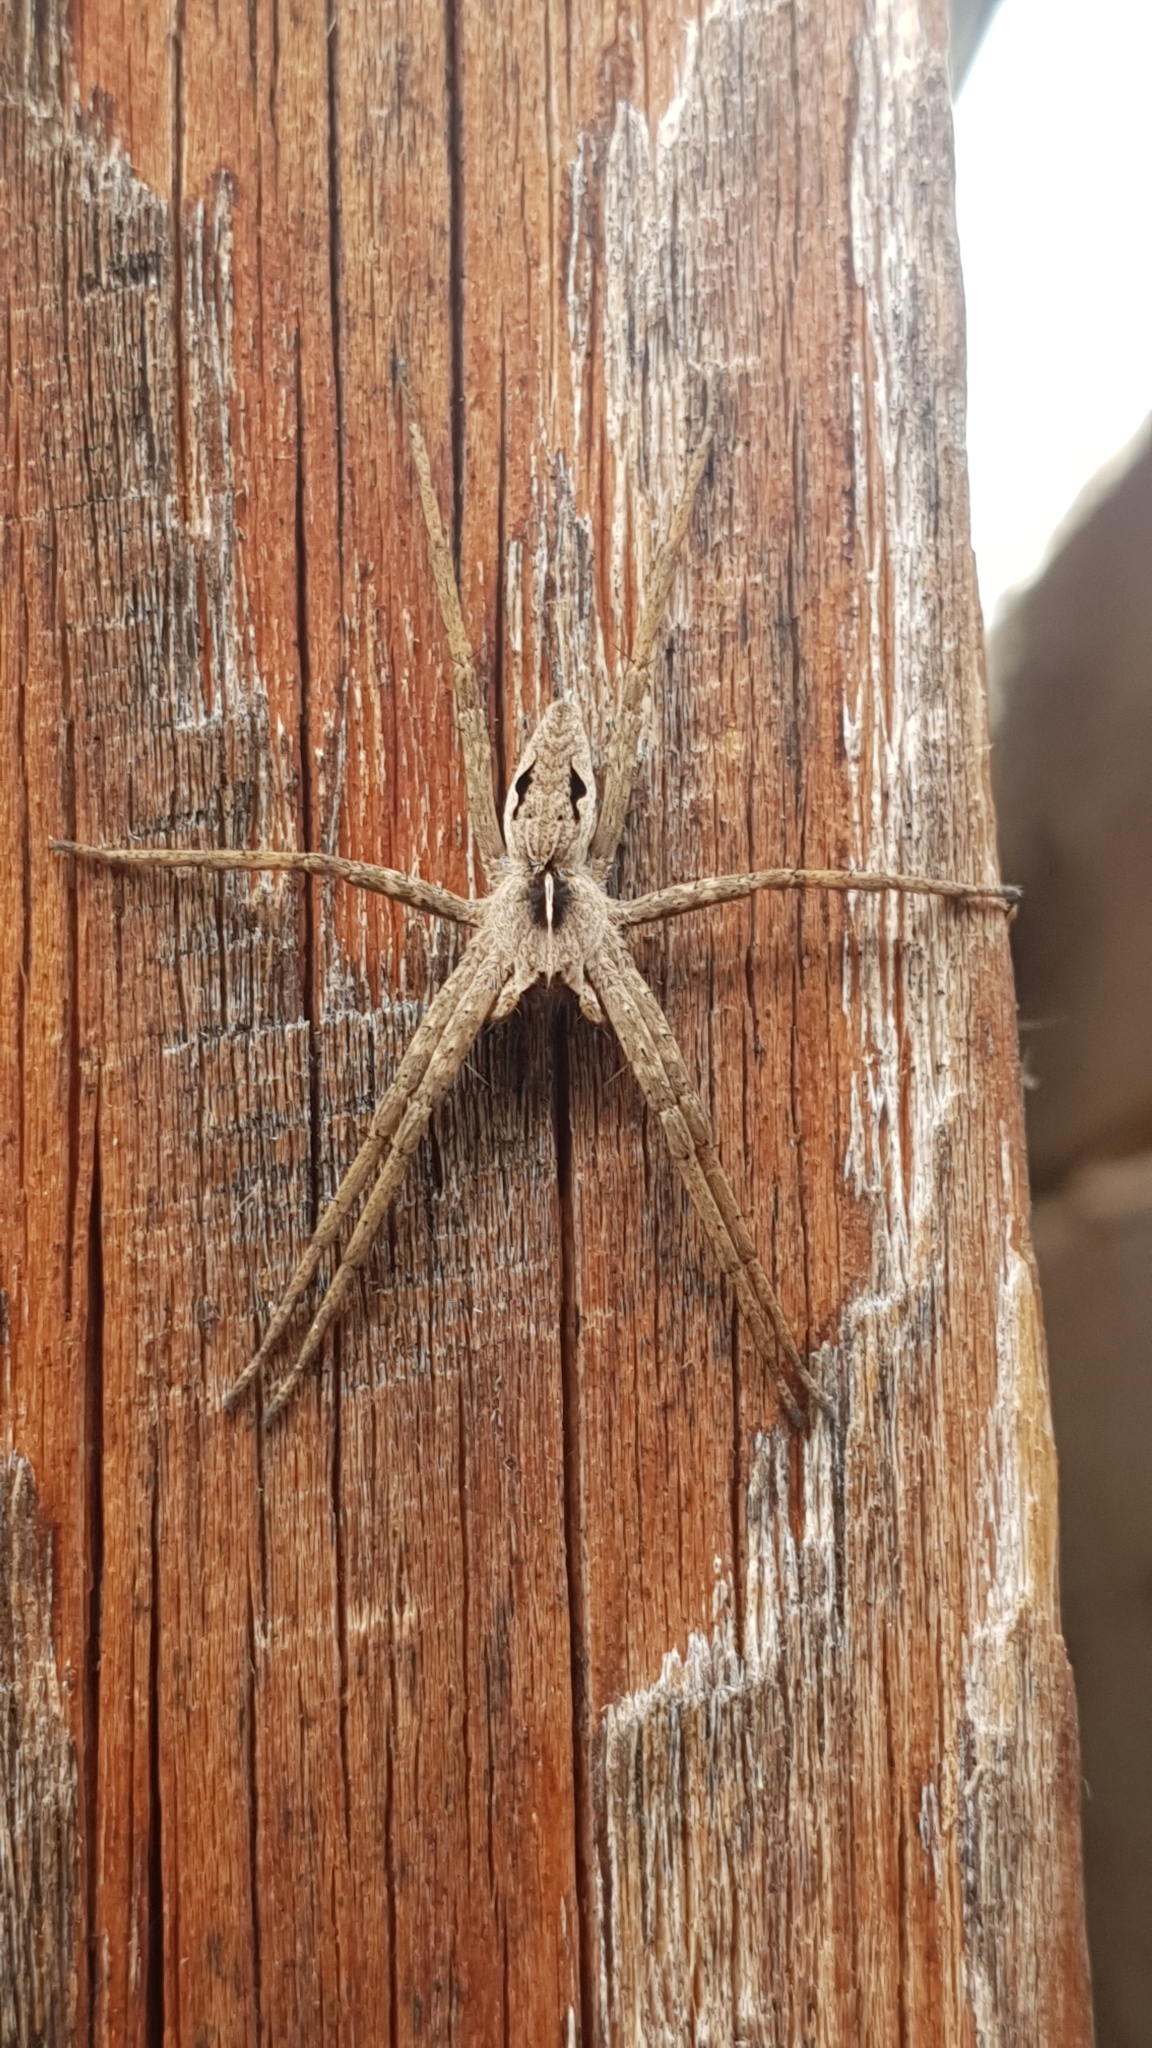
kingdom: Animalia
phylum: Arthropoda
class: Arachnida
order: Araneae
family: Pisauridae
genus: Pisaura
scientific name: Pisaura
